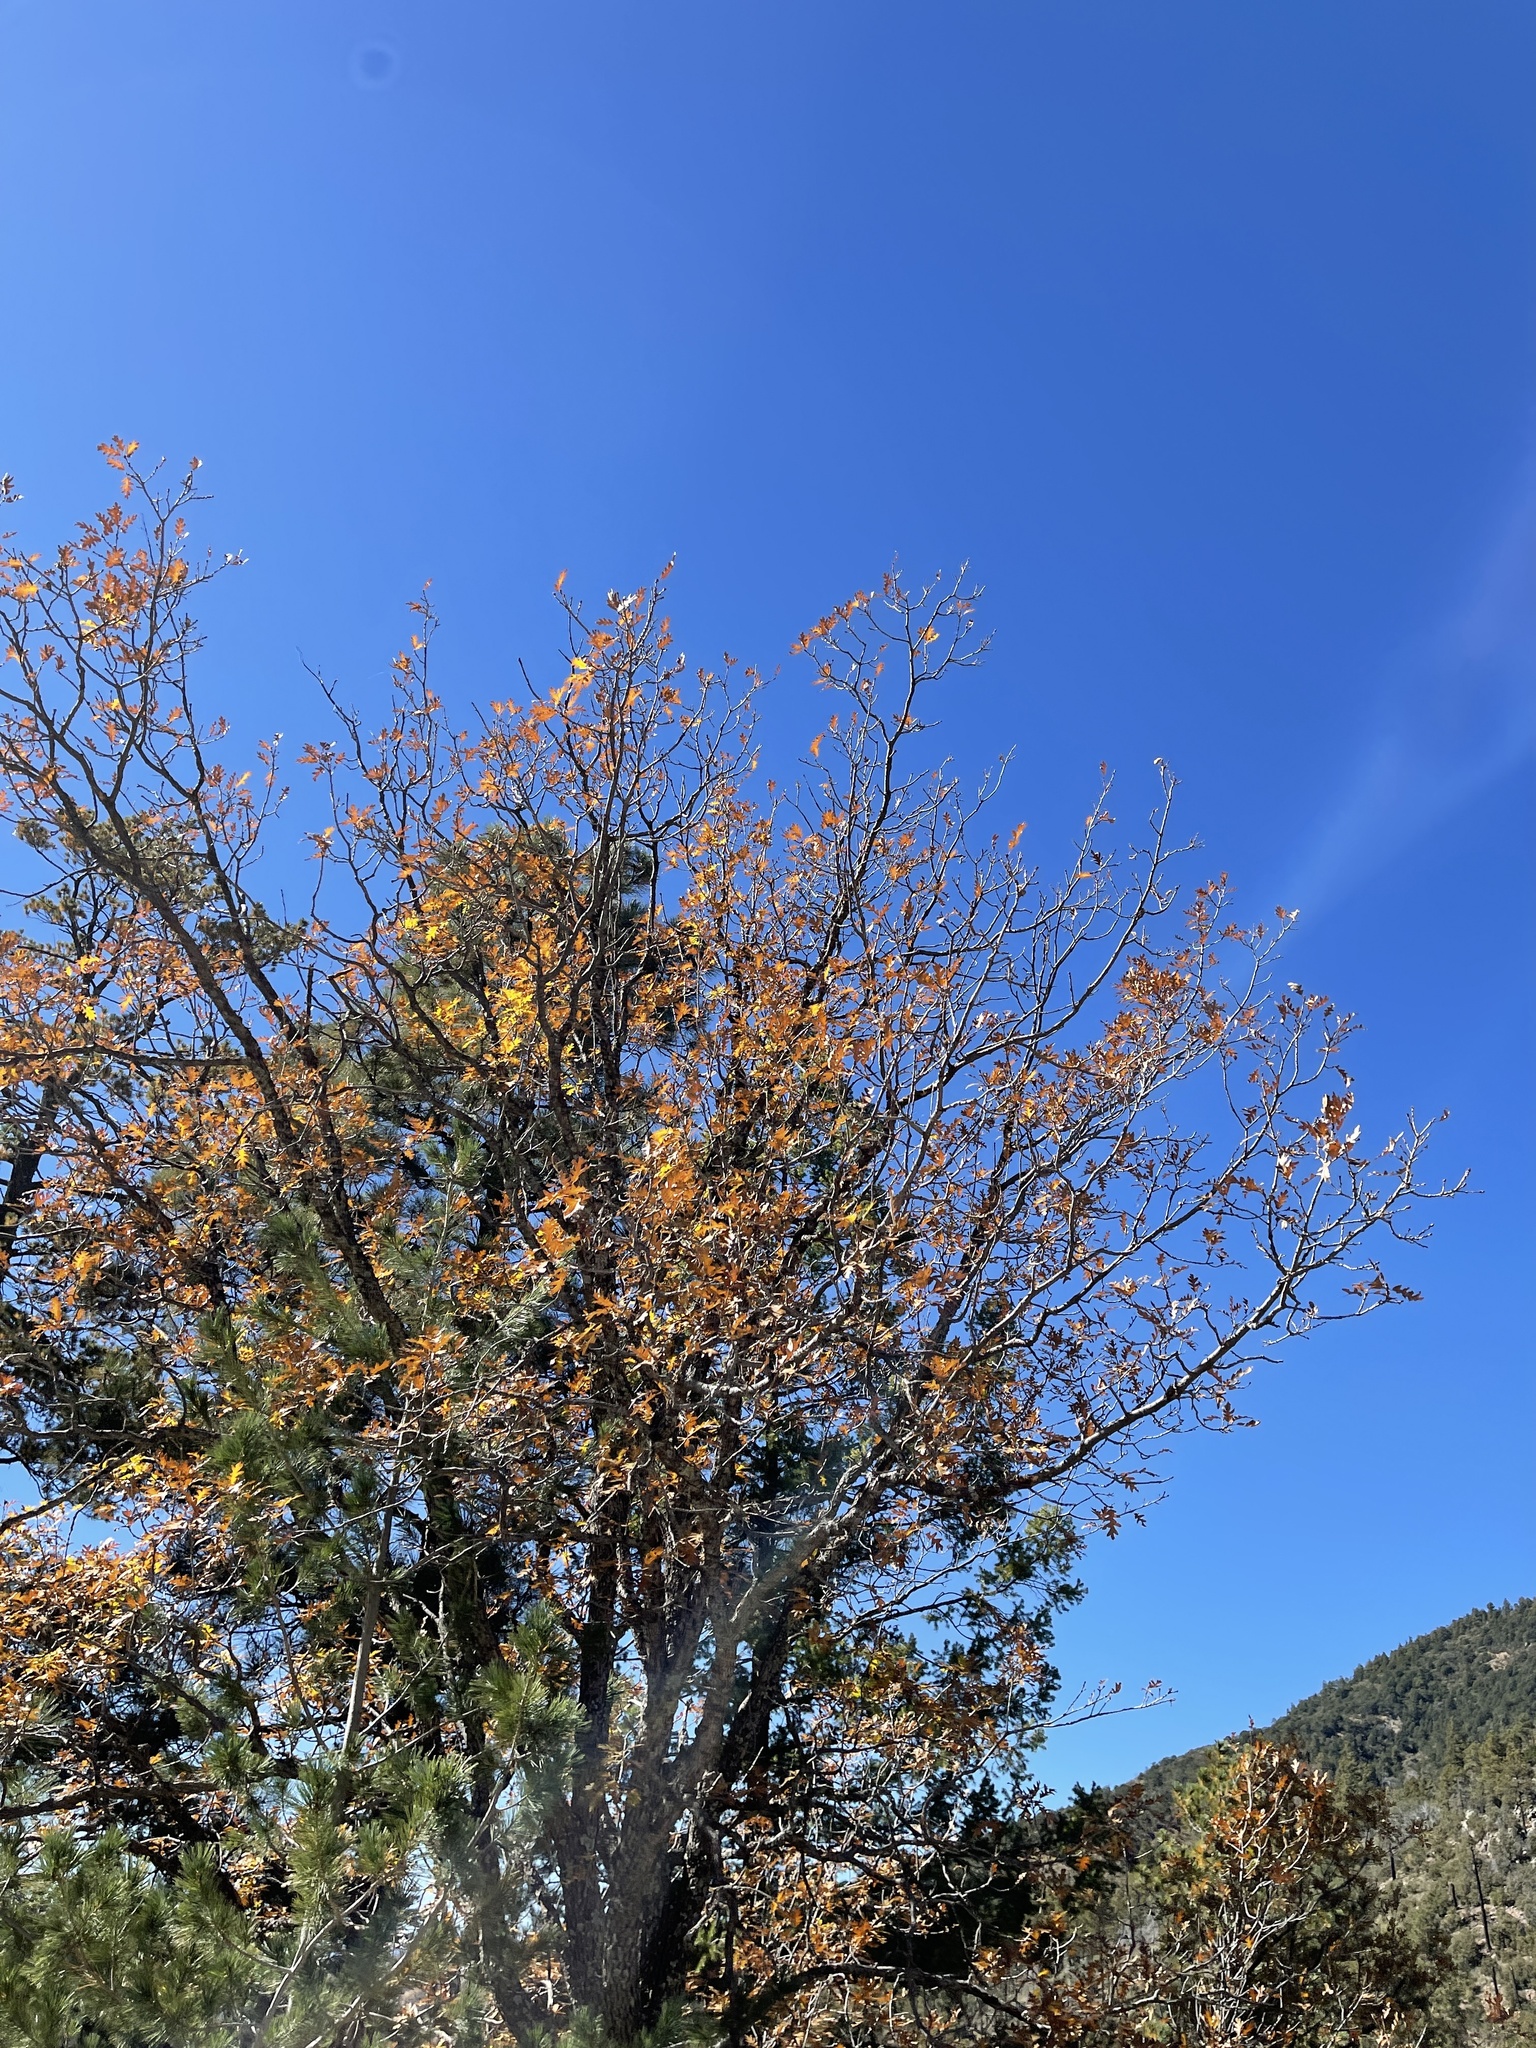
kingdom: Plantae
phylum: Tracheophyta
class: Magnoliopsida
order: Fagales
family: Fagaceae
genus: Quercus
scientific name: Quercus gambelii
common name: Gambel oak
